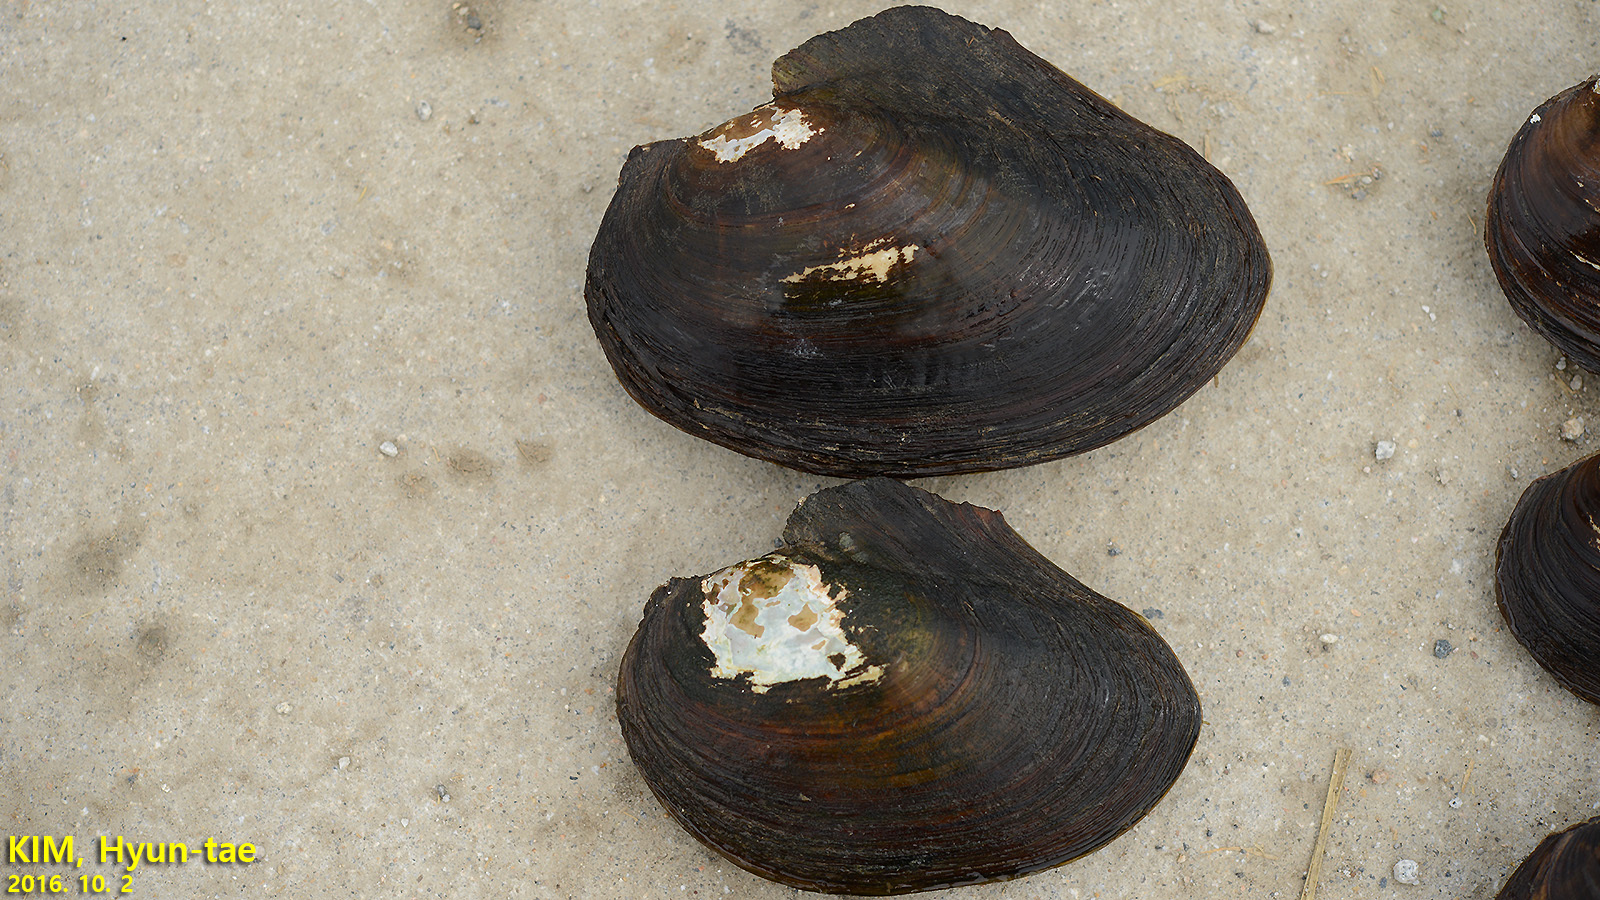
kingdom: Animalia
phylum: Mollusca
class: Bivalvia
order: Unionida
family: Unionidae
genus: Cristaria
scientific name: Cristaria plicata
